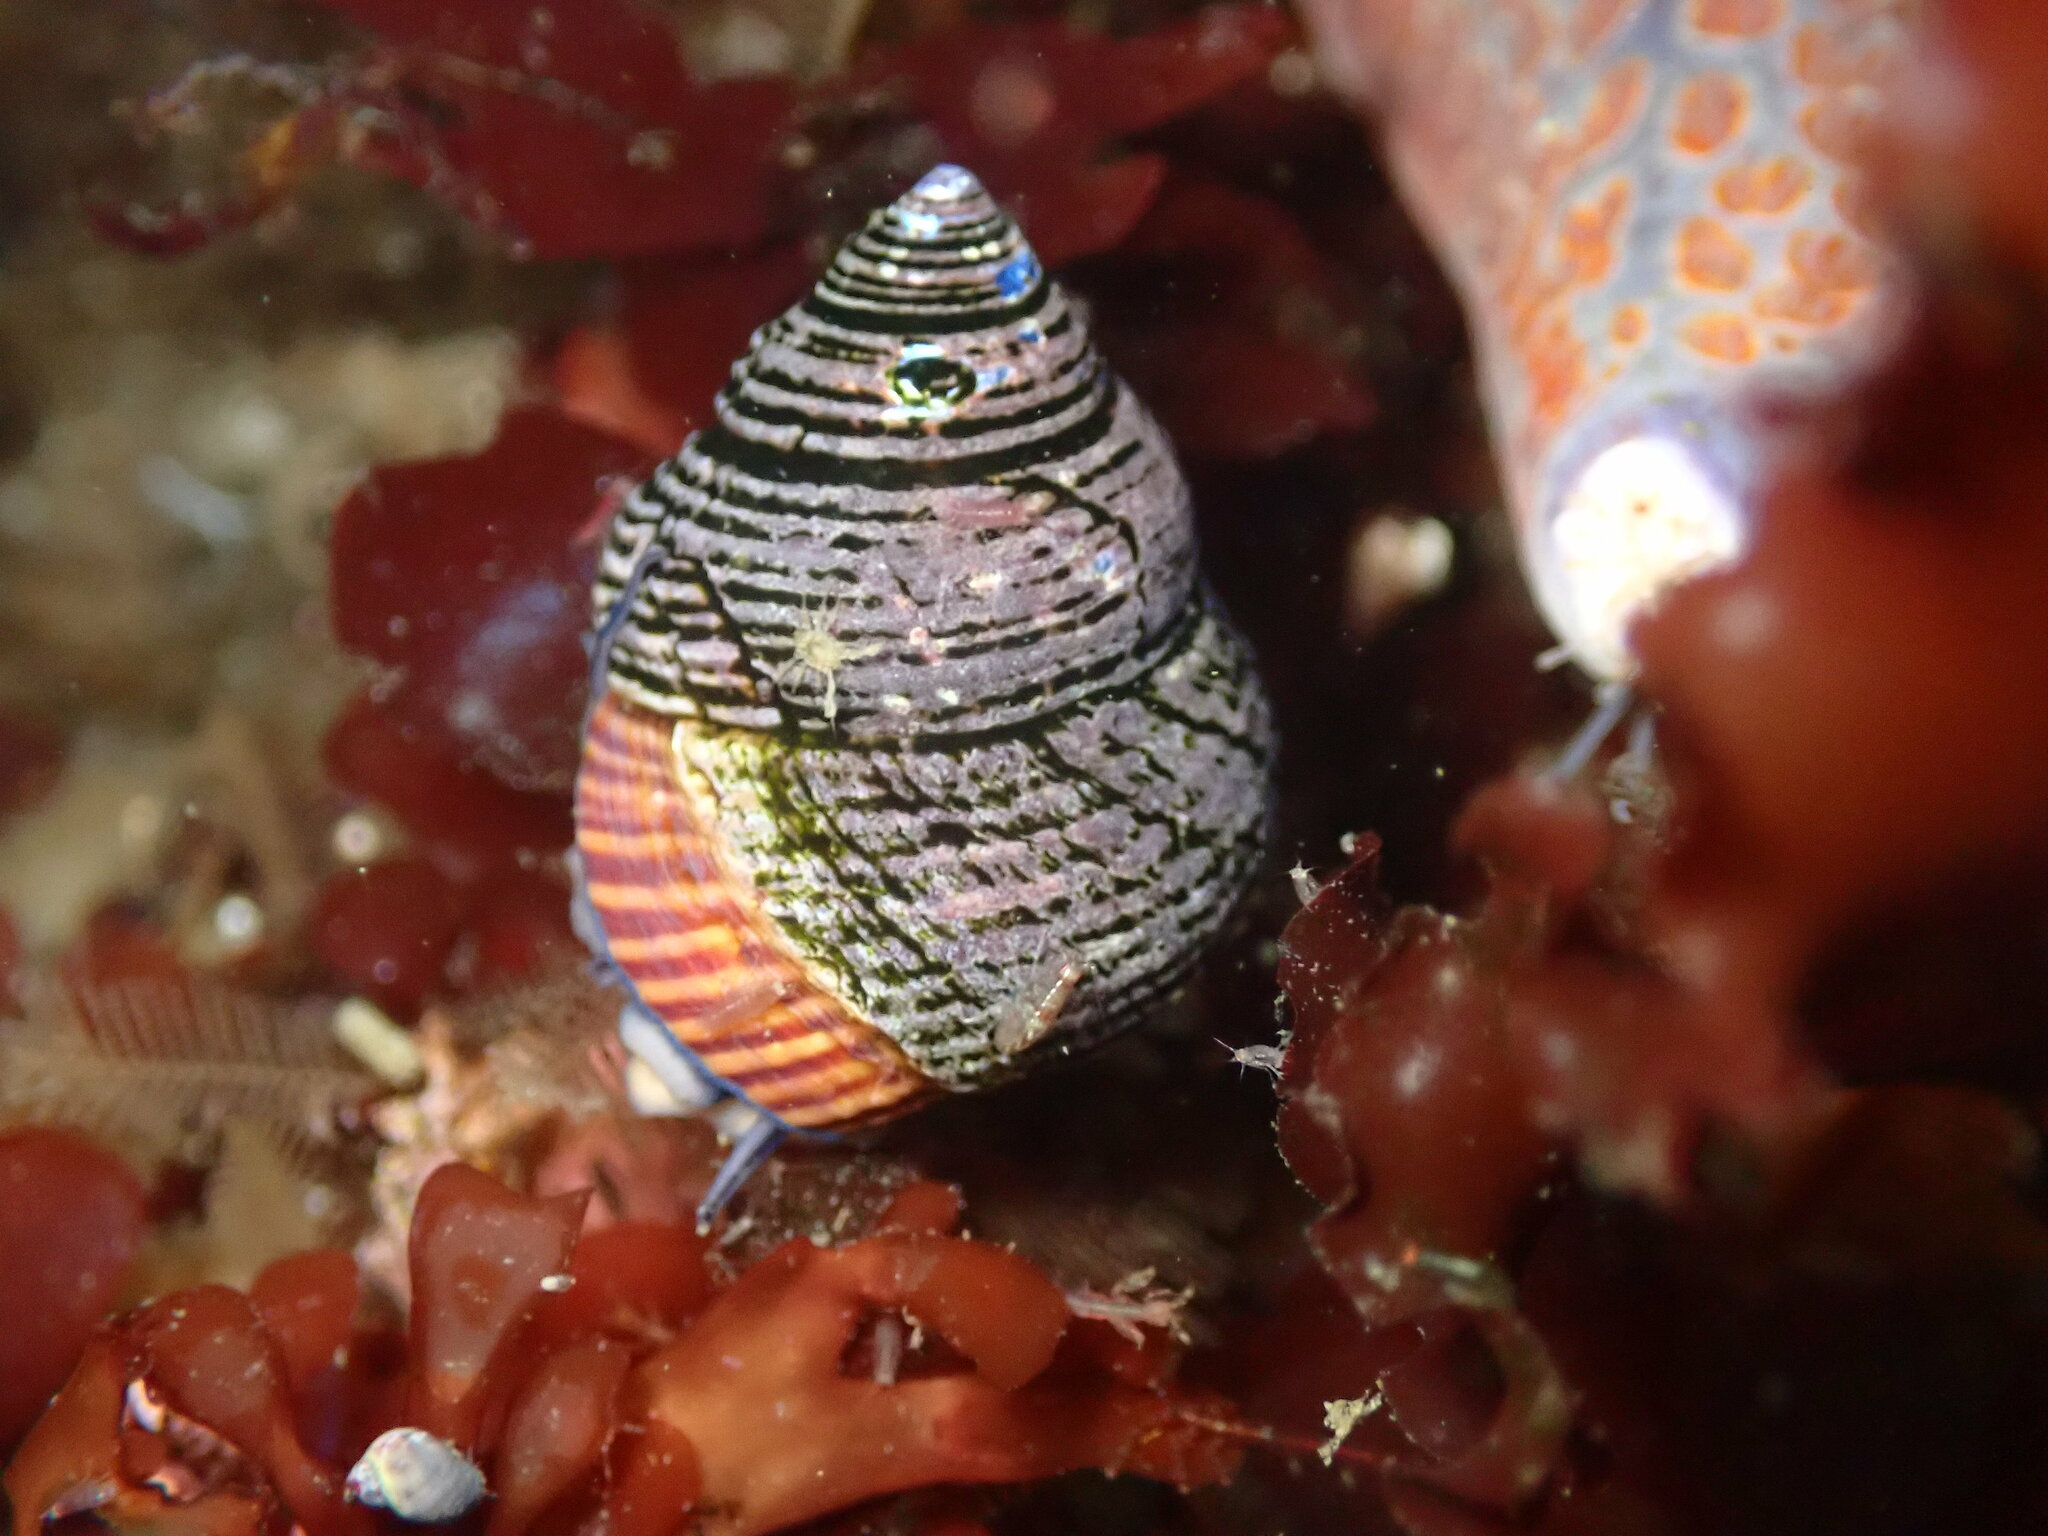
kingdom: Animalia
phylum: Mollusca
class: Gastropoda
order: Trochida
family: Calliostomatidae
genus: Calliostoma
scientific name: Calliostoma ligatum
